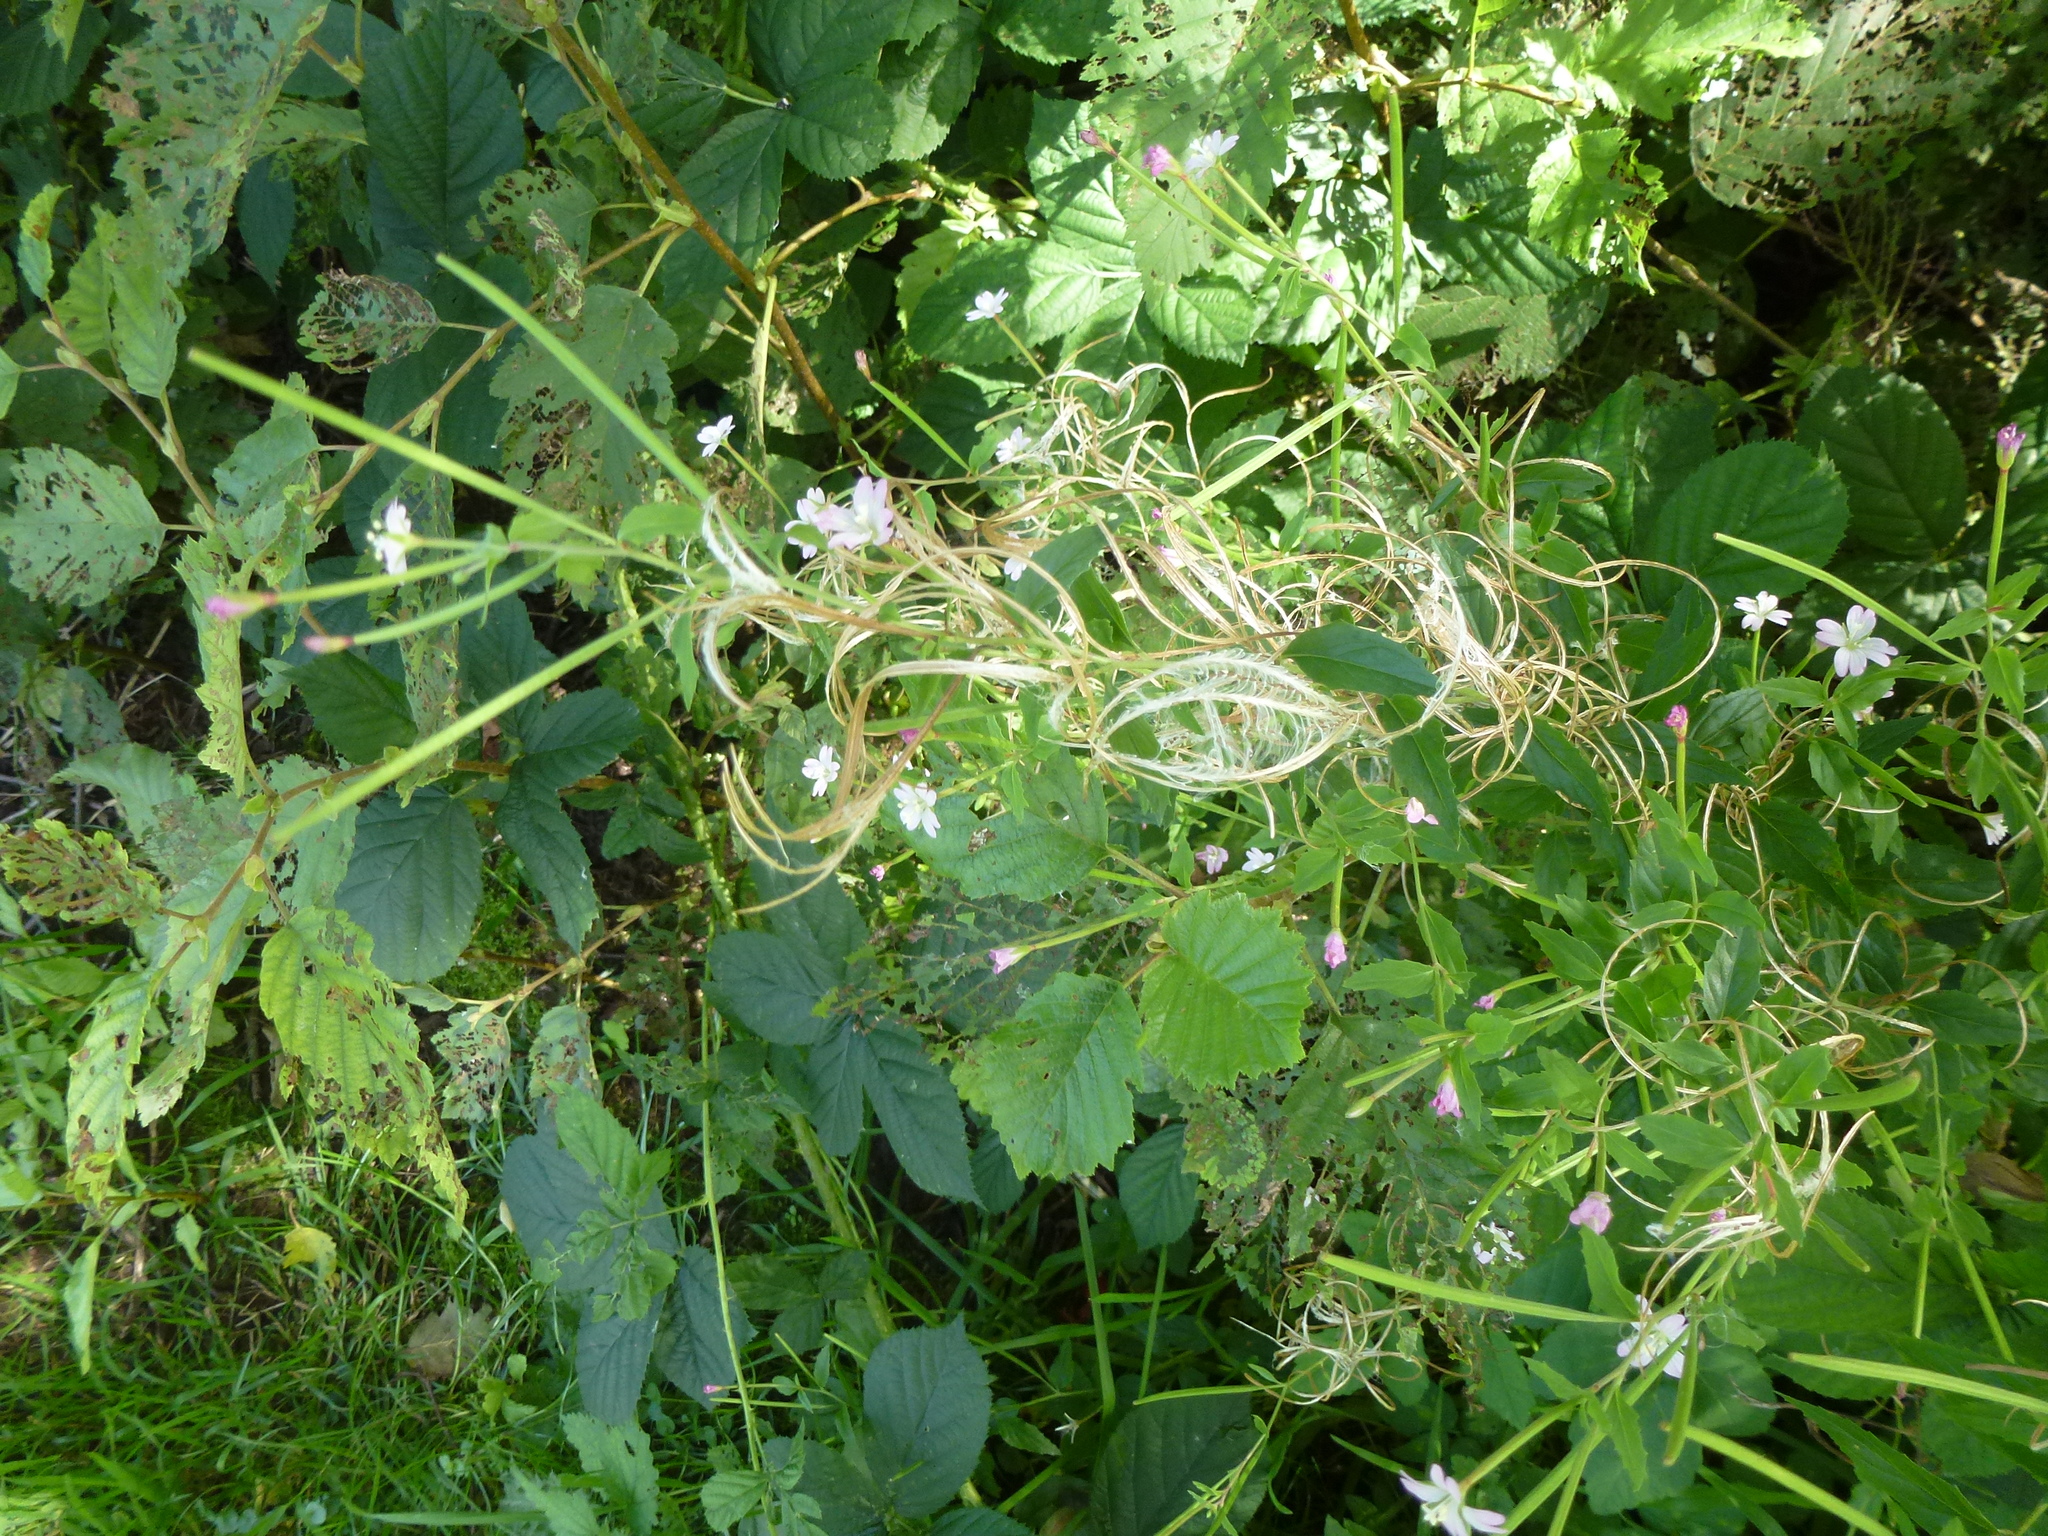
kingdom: Plantae
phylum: Tracheophyta
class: Magnoliopsida
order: Myrtales
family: Onagraceae
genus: Epilobium
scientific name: Epilobium ciliatum
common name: American willowherb
